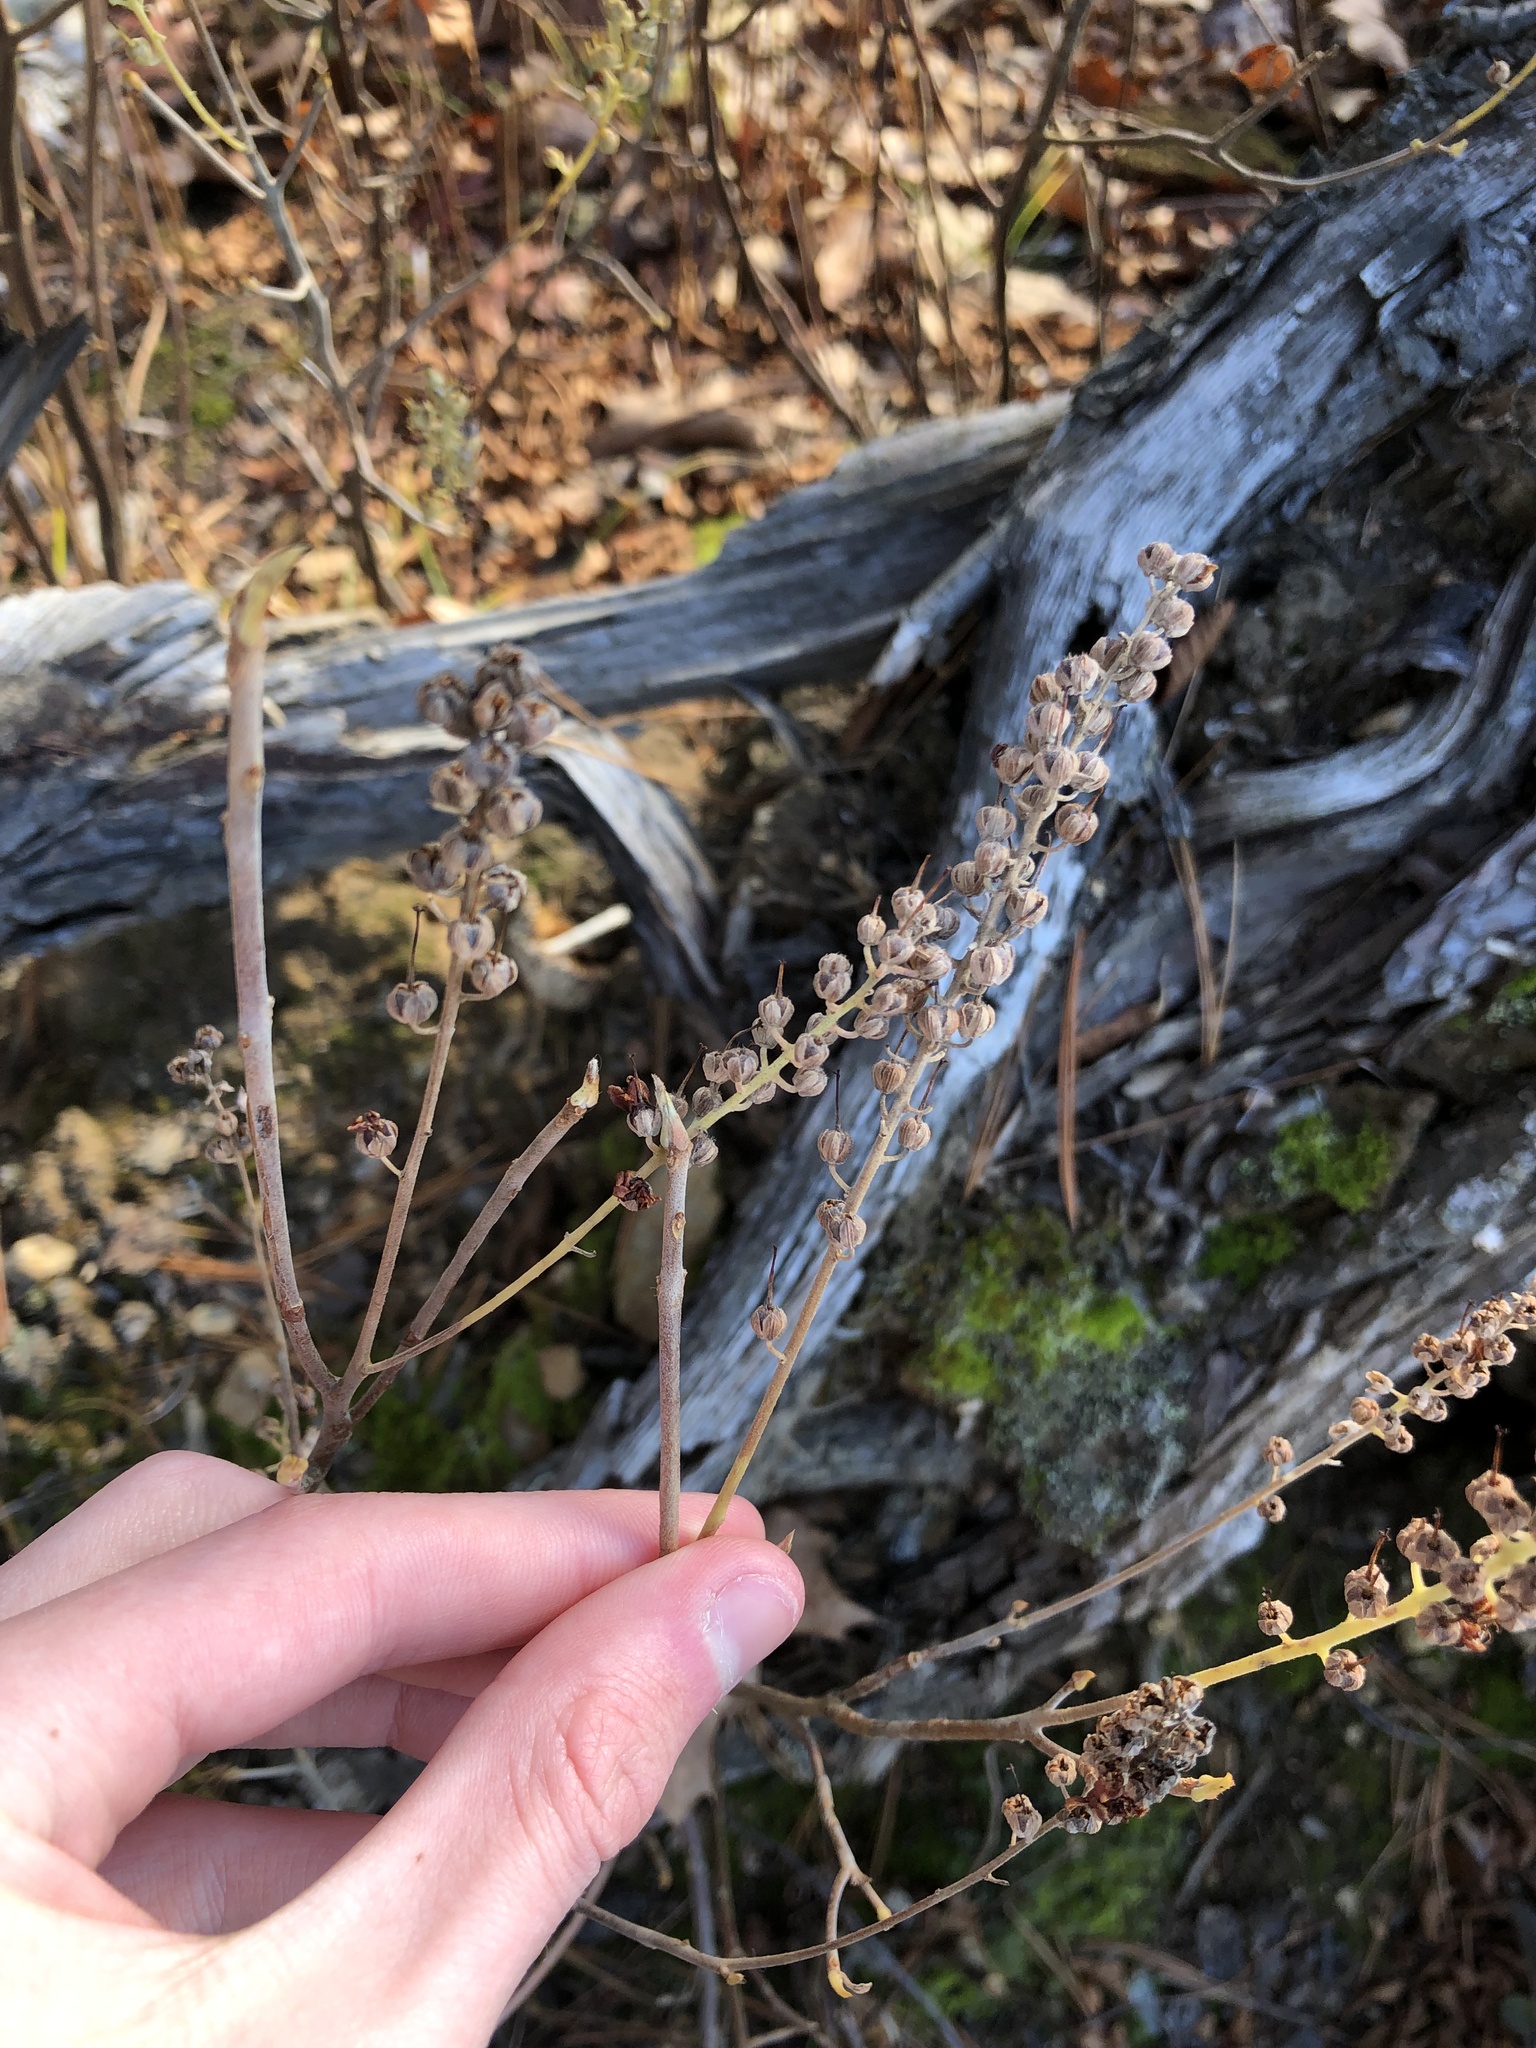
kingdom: Plantae
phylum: Tracheophyta
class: Magnoliopsida
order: Ericales
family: Clethraceae
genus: Clethra
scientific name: Clethra alnifolia
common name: Sweet pepperbush
